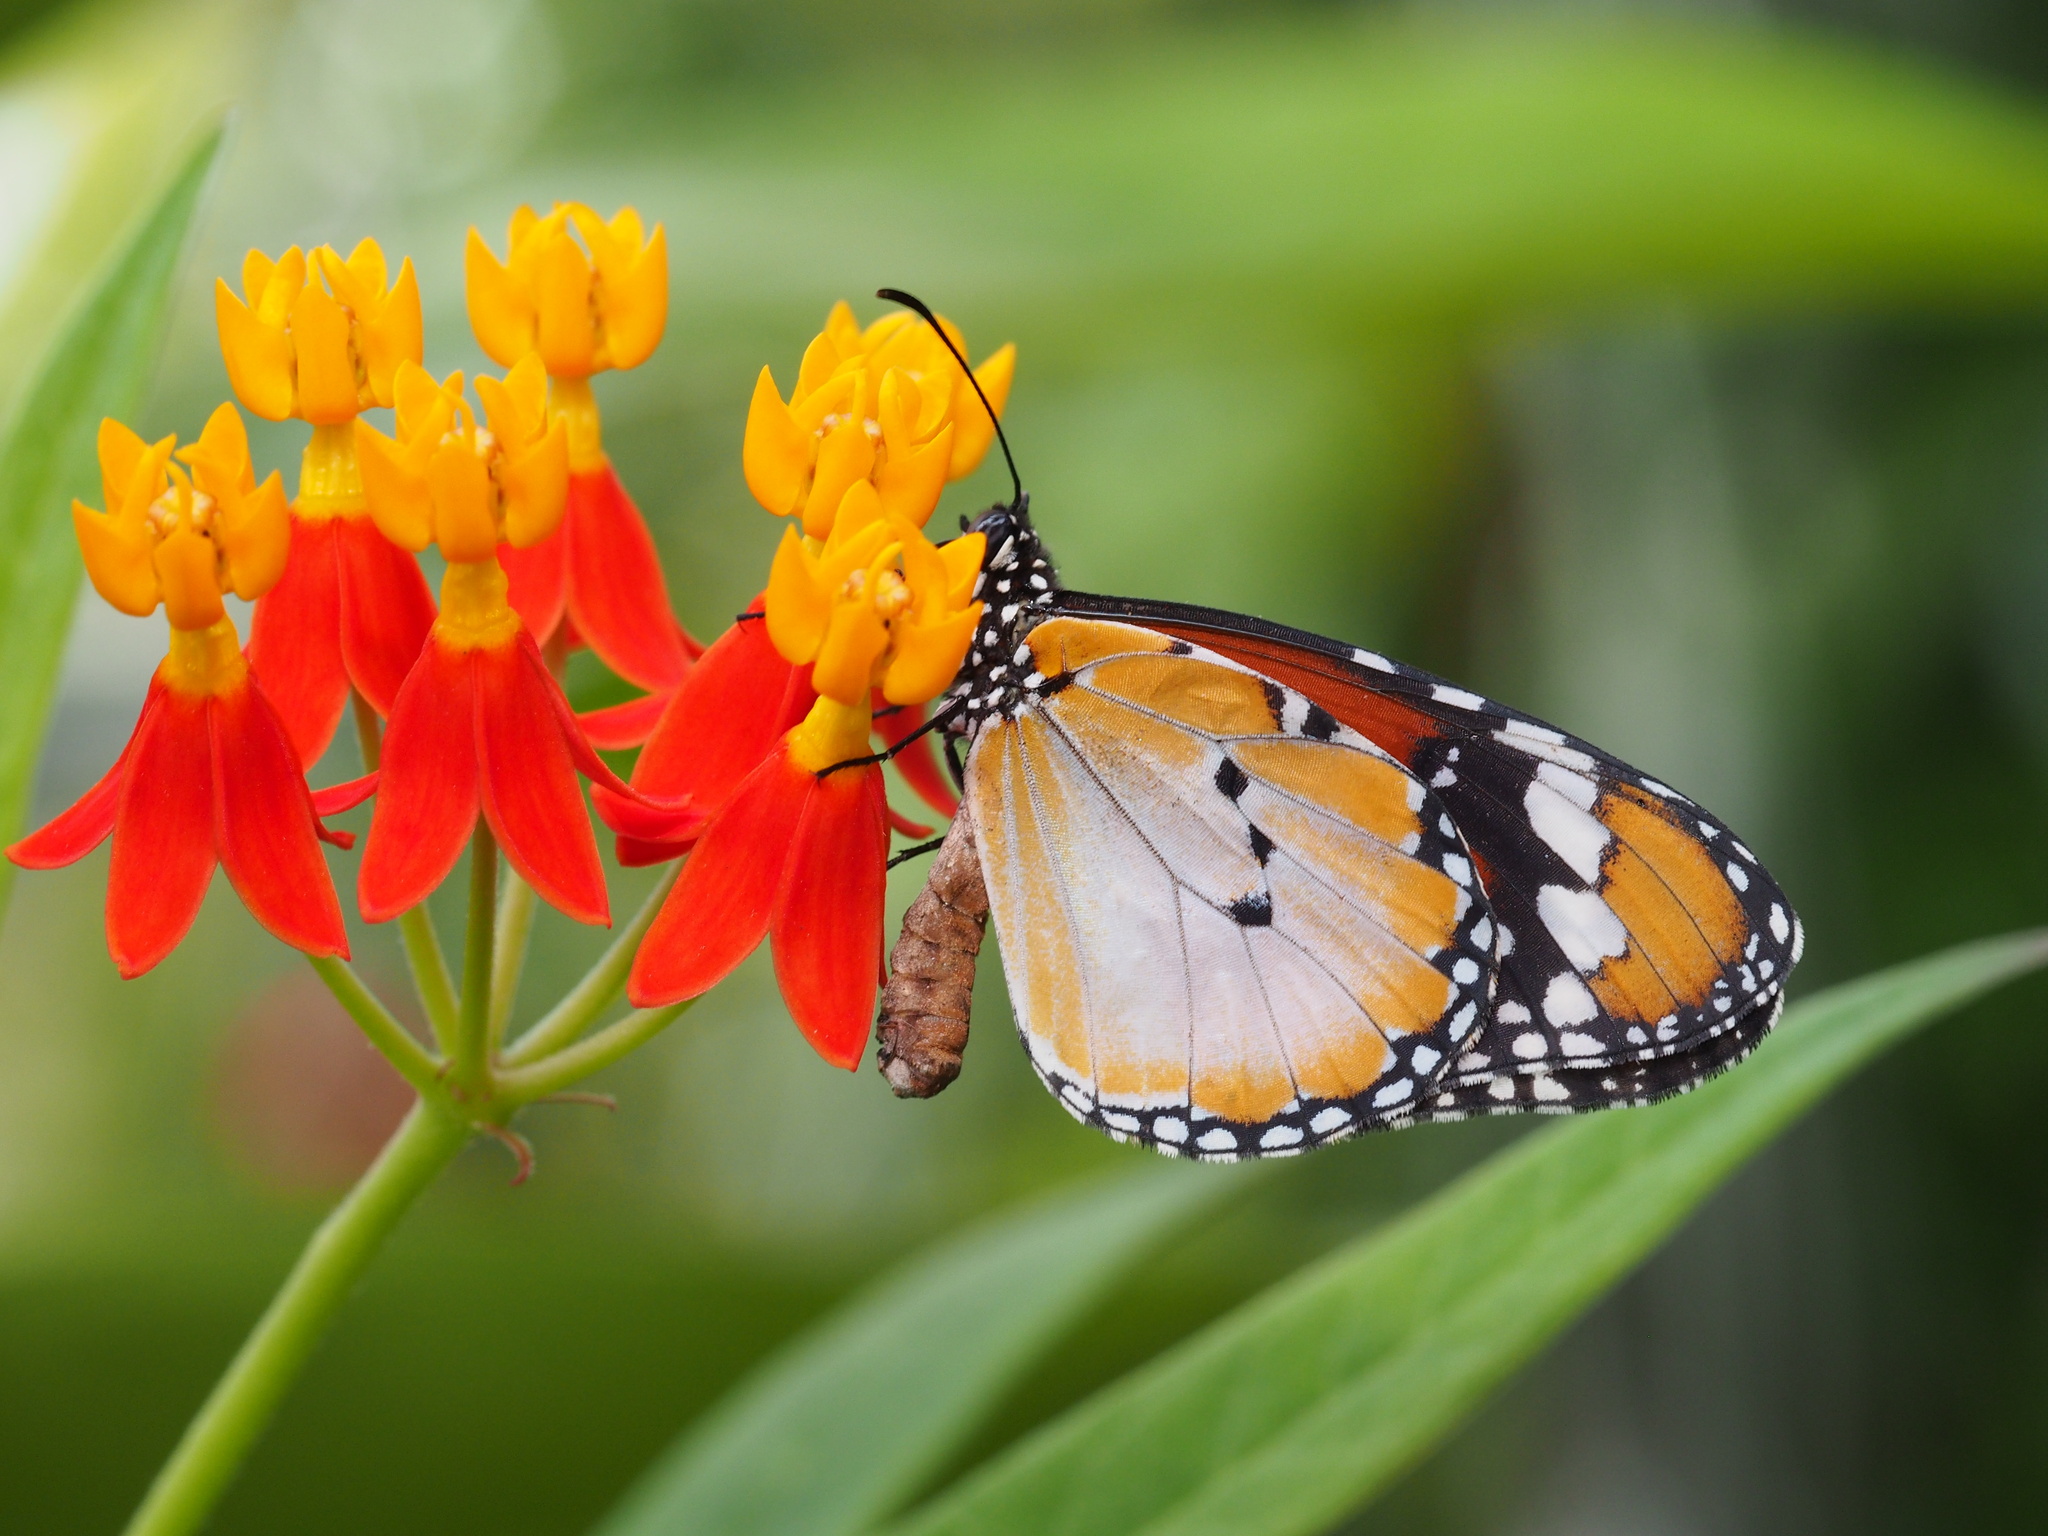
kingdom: Animalia
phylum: Arthropoda
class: Insecta
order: Lepidoptera
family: Nymphalidae
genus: Danaus
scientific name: Danaus chrysippus
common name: Plain tiger
